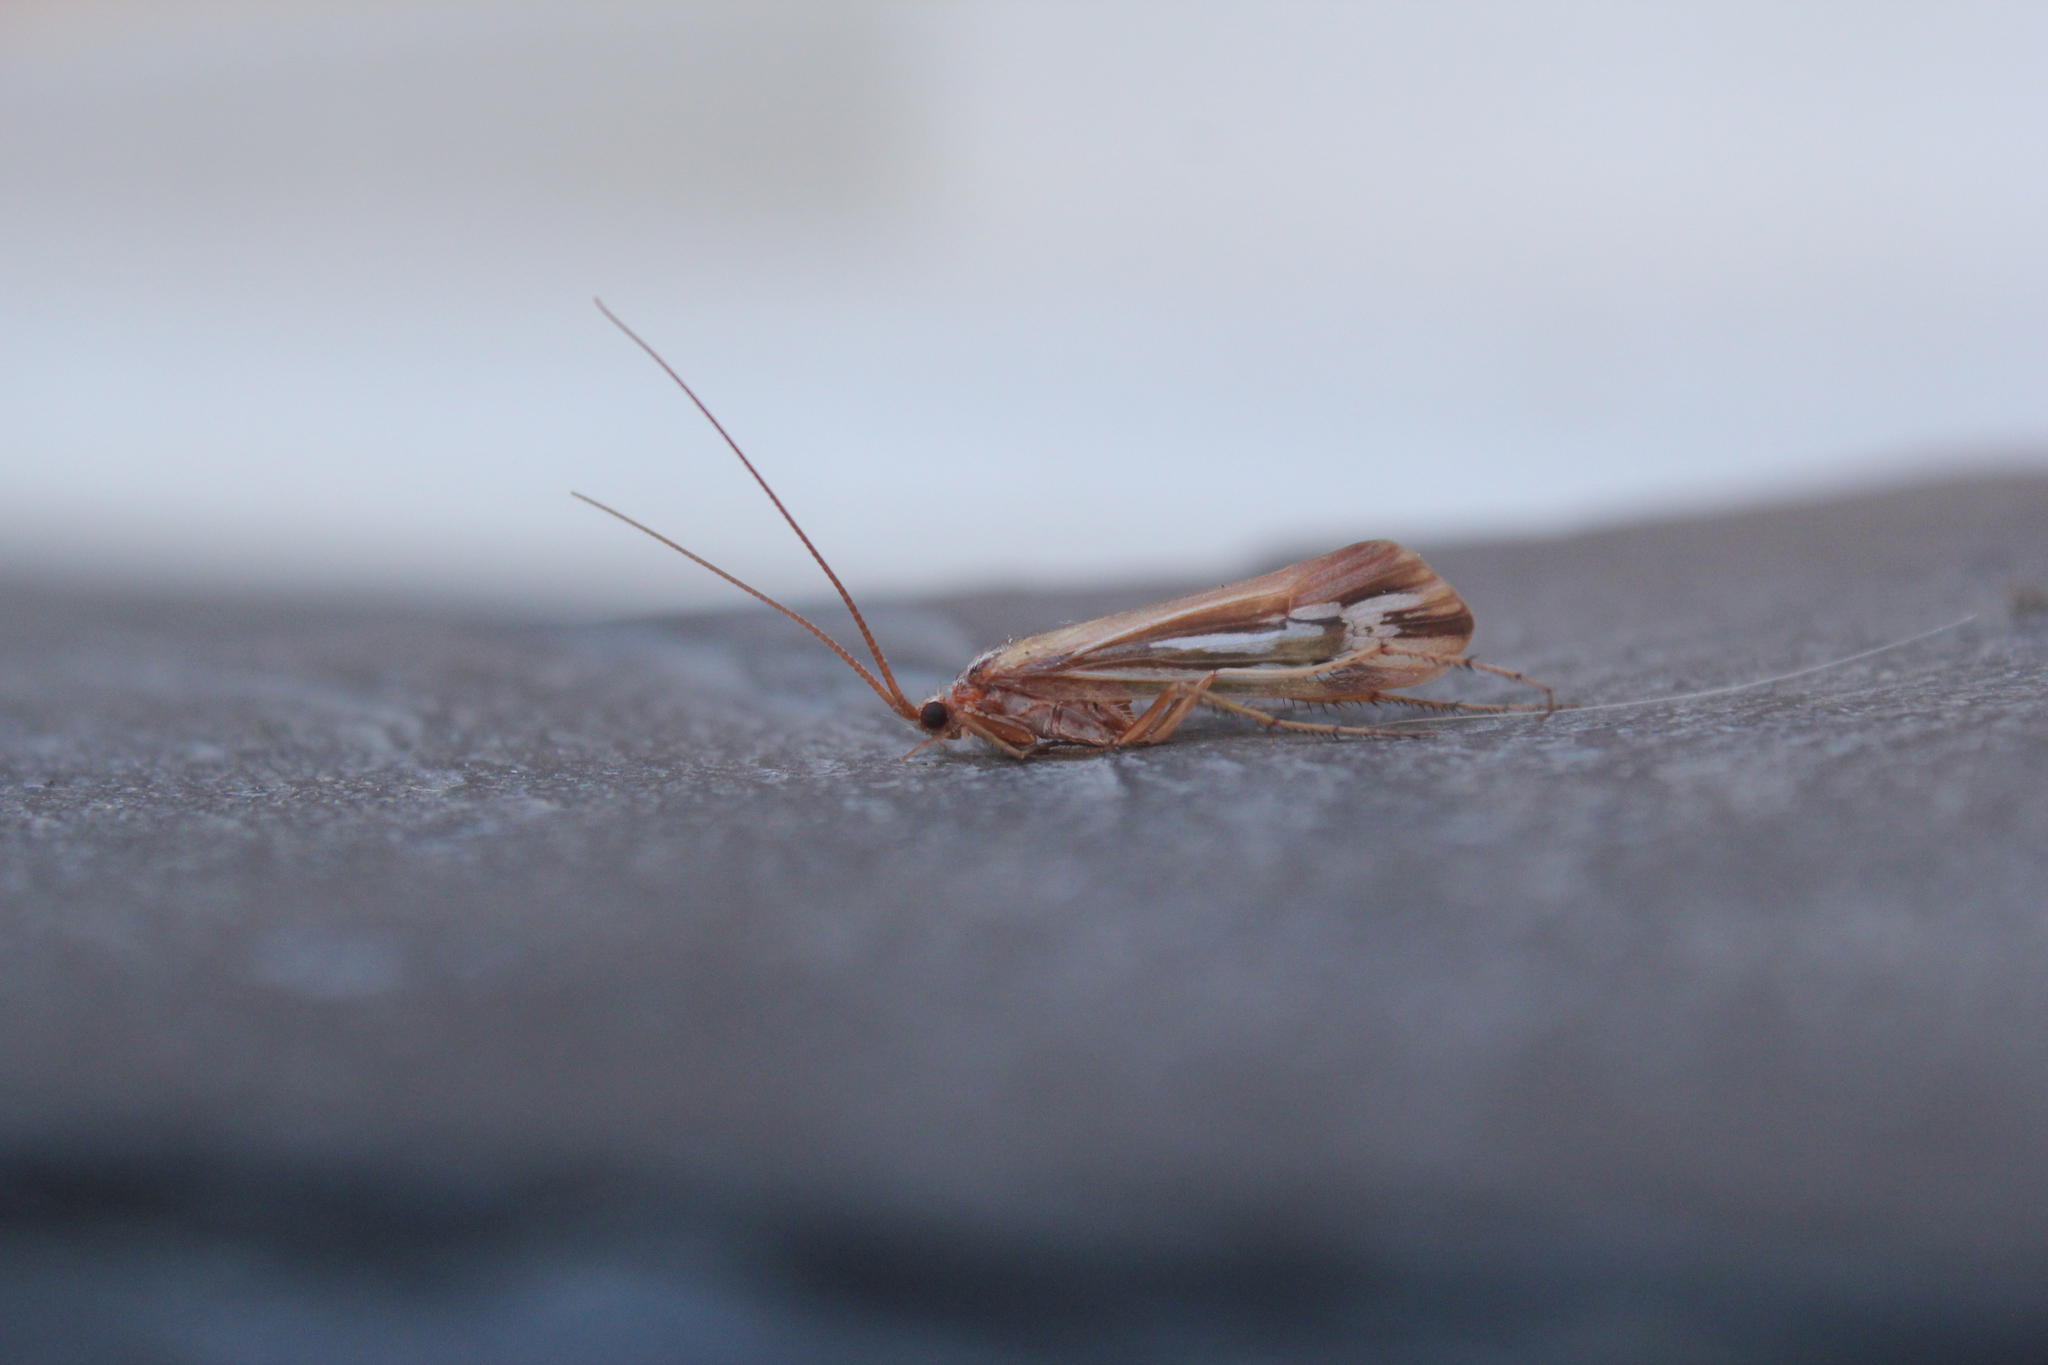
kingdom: Animalia
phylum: Arthropoda
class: Insecta
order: Trichoptera
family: Limnephilidae
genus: Limnephilus
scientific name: Limnephilus ornatus
